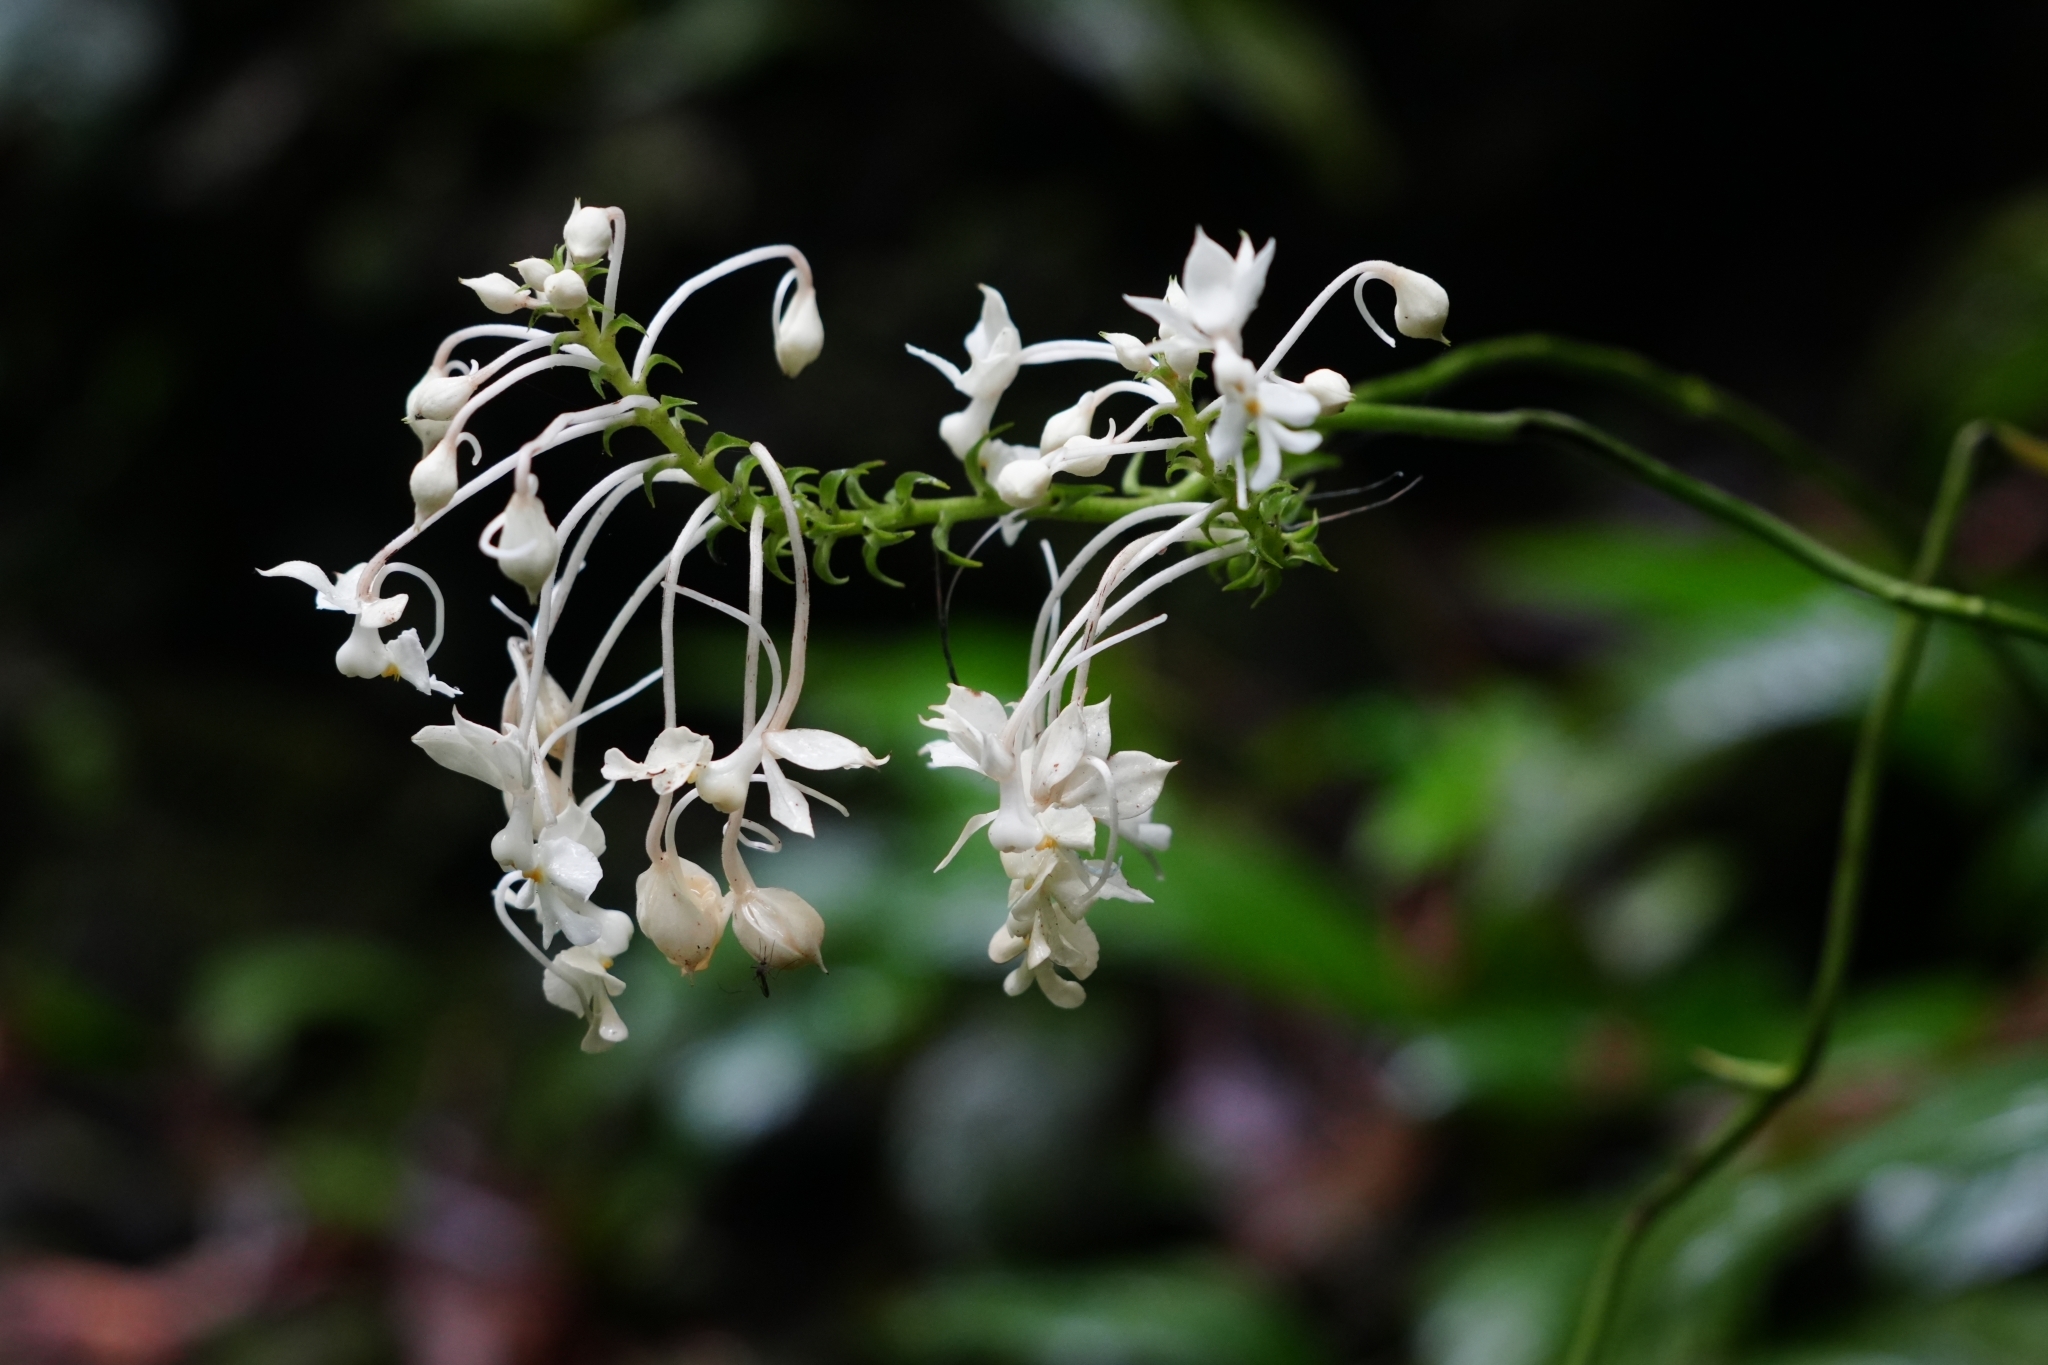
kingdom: Plantae
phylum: Tracheophyta
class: Liliopsida
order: Asparagales
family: Orchidaceae
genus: Calanthe
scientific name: Calanthe triplicata
